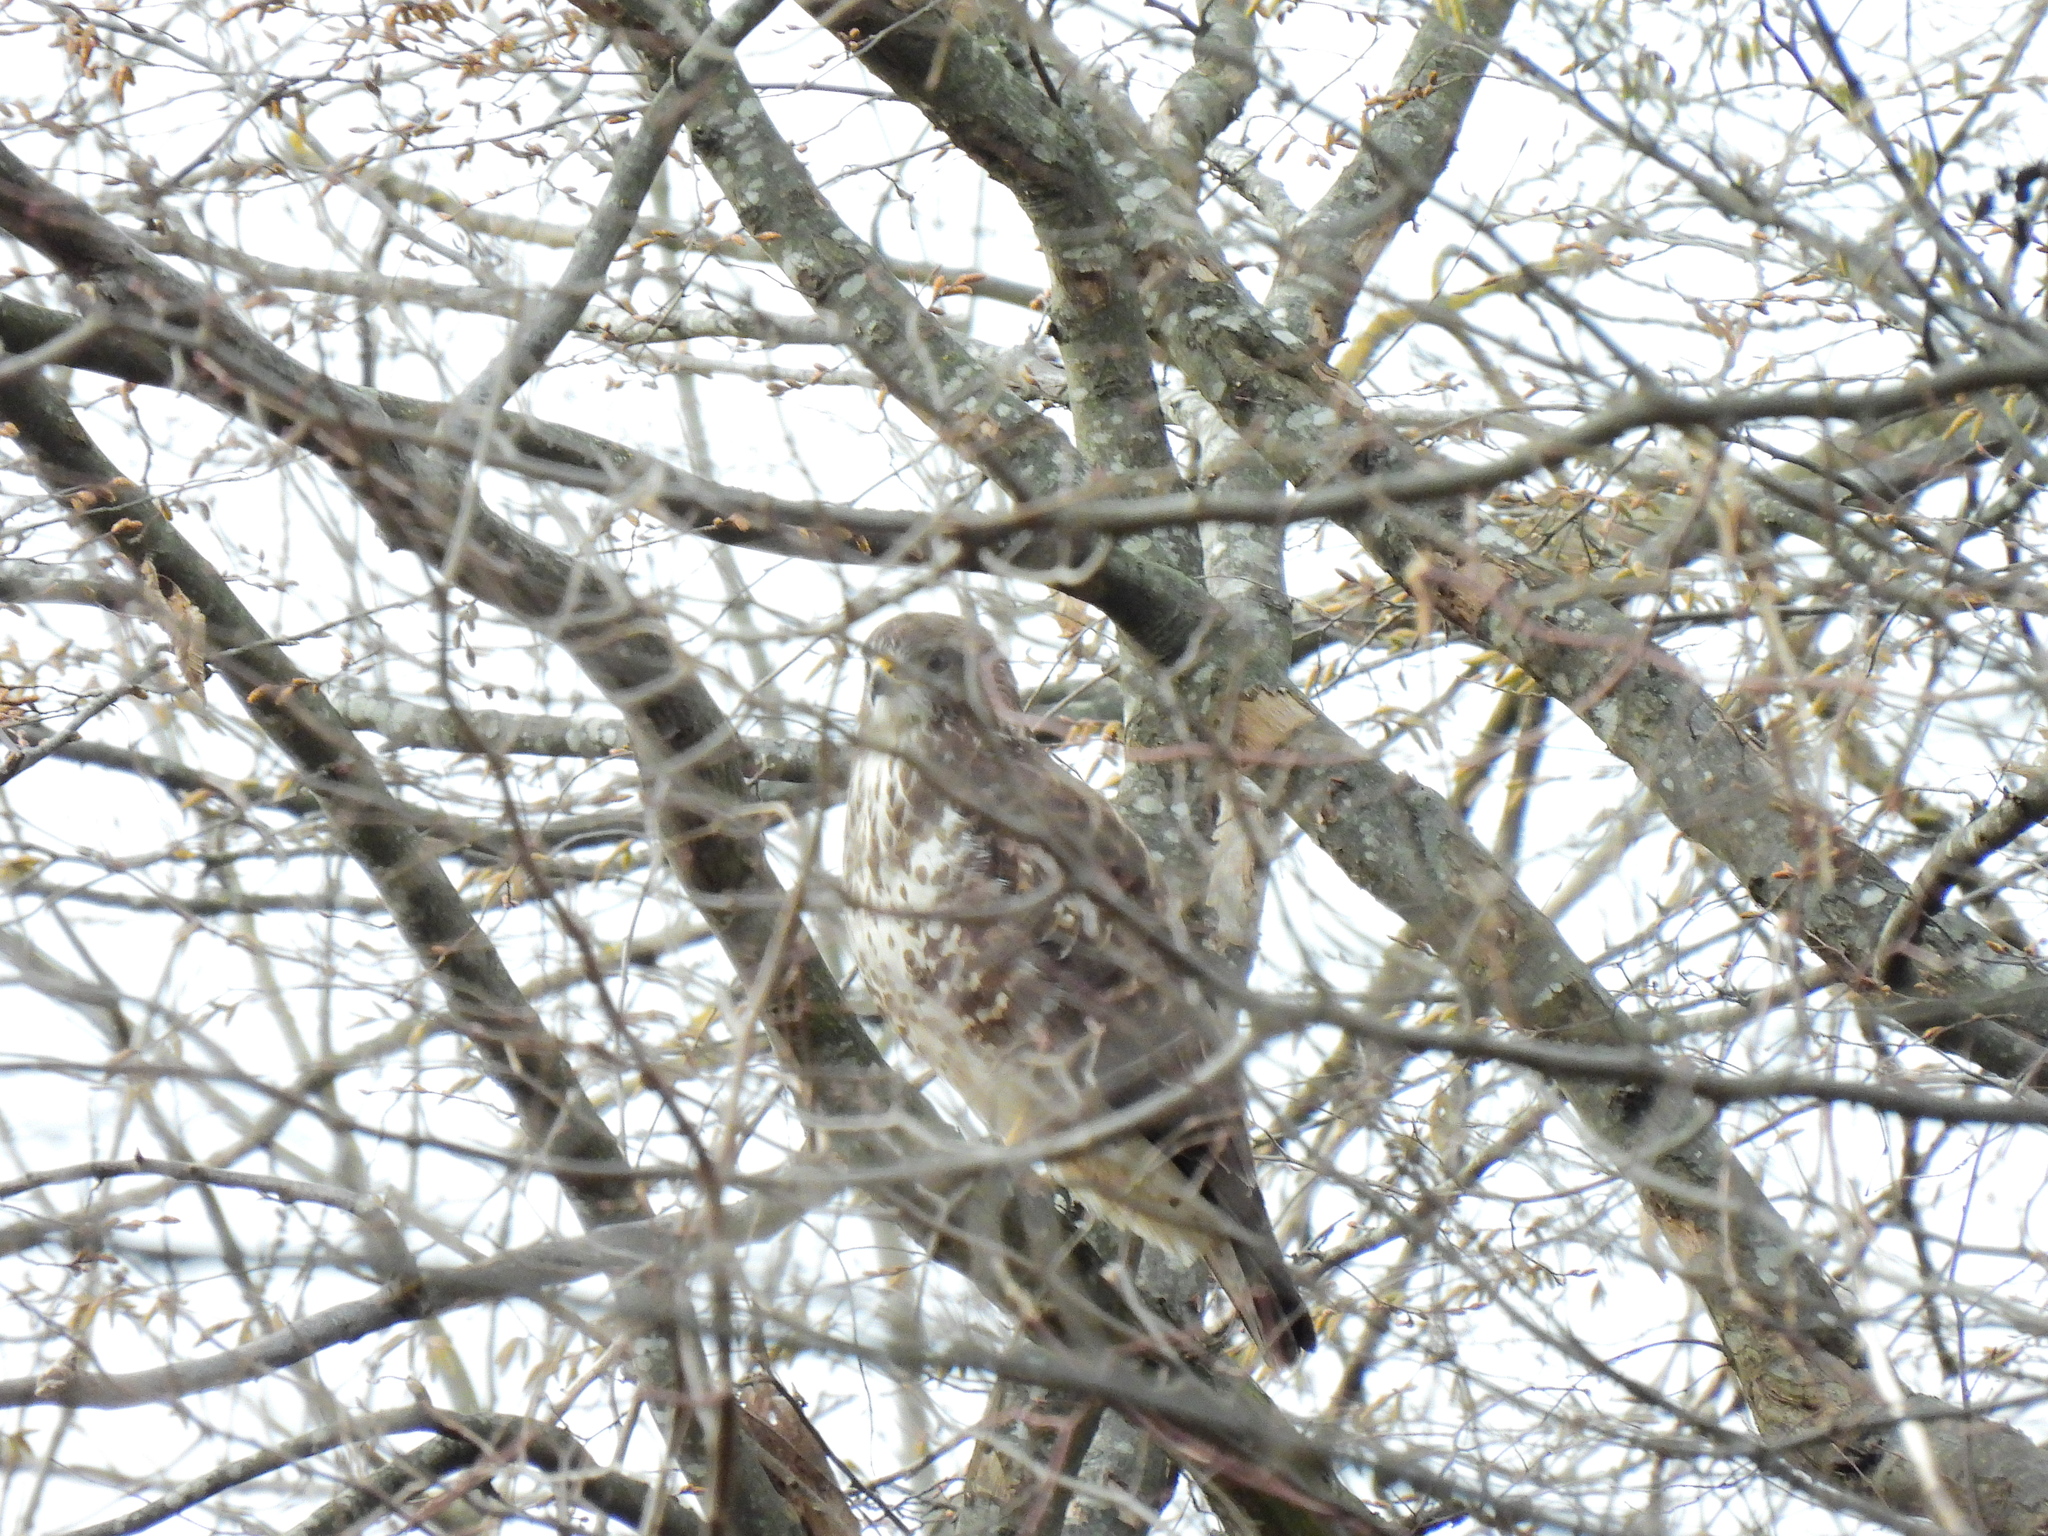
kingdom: Animalia
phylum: Chordata
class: Aves
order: Accipitriformes
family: Accipitridae
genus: Buteo
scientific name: Buteo buteo
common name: Common buzzard
